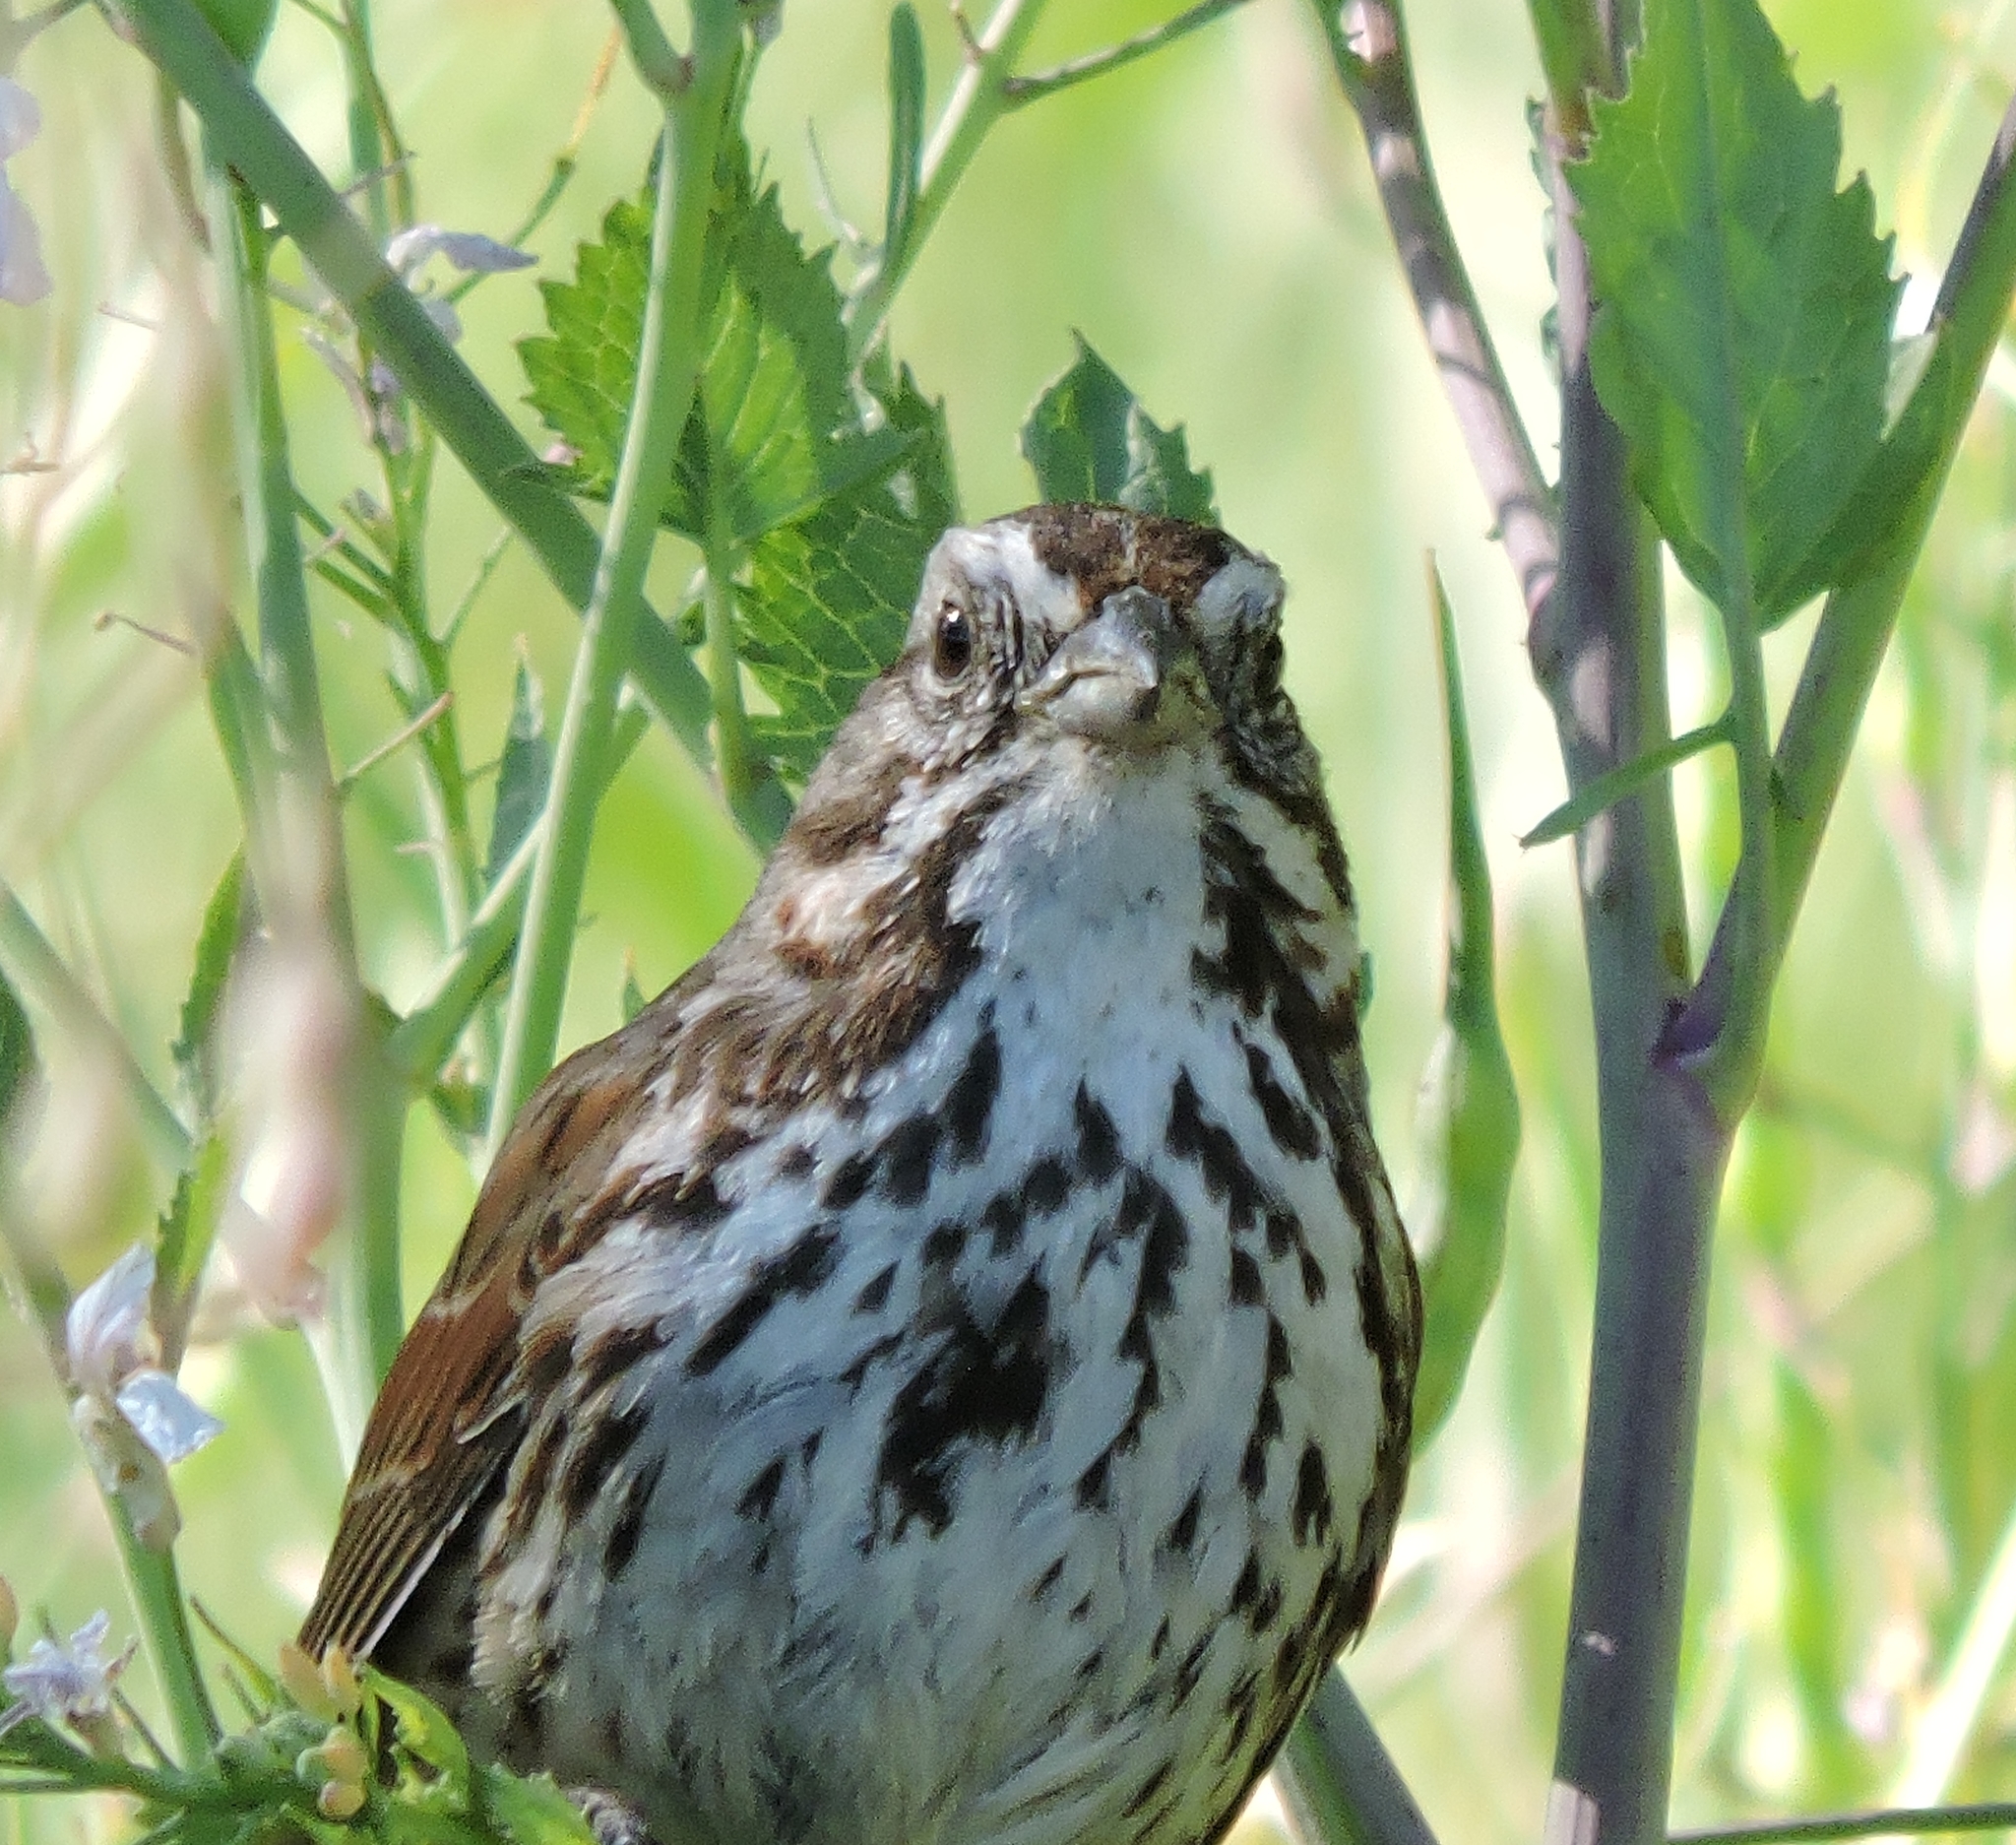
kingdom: Animalia
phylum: Chordata
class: Aves
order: Passeriformes
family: Passerellidae
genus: Melospiza
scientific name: Melospiza melodia
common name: Song sparrow
